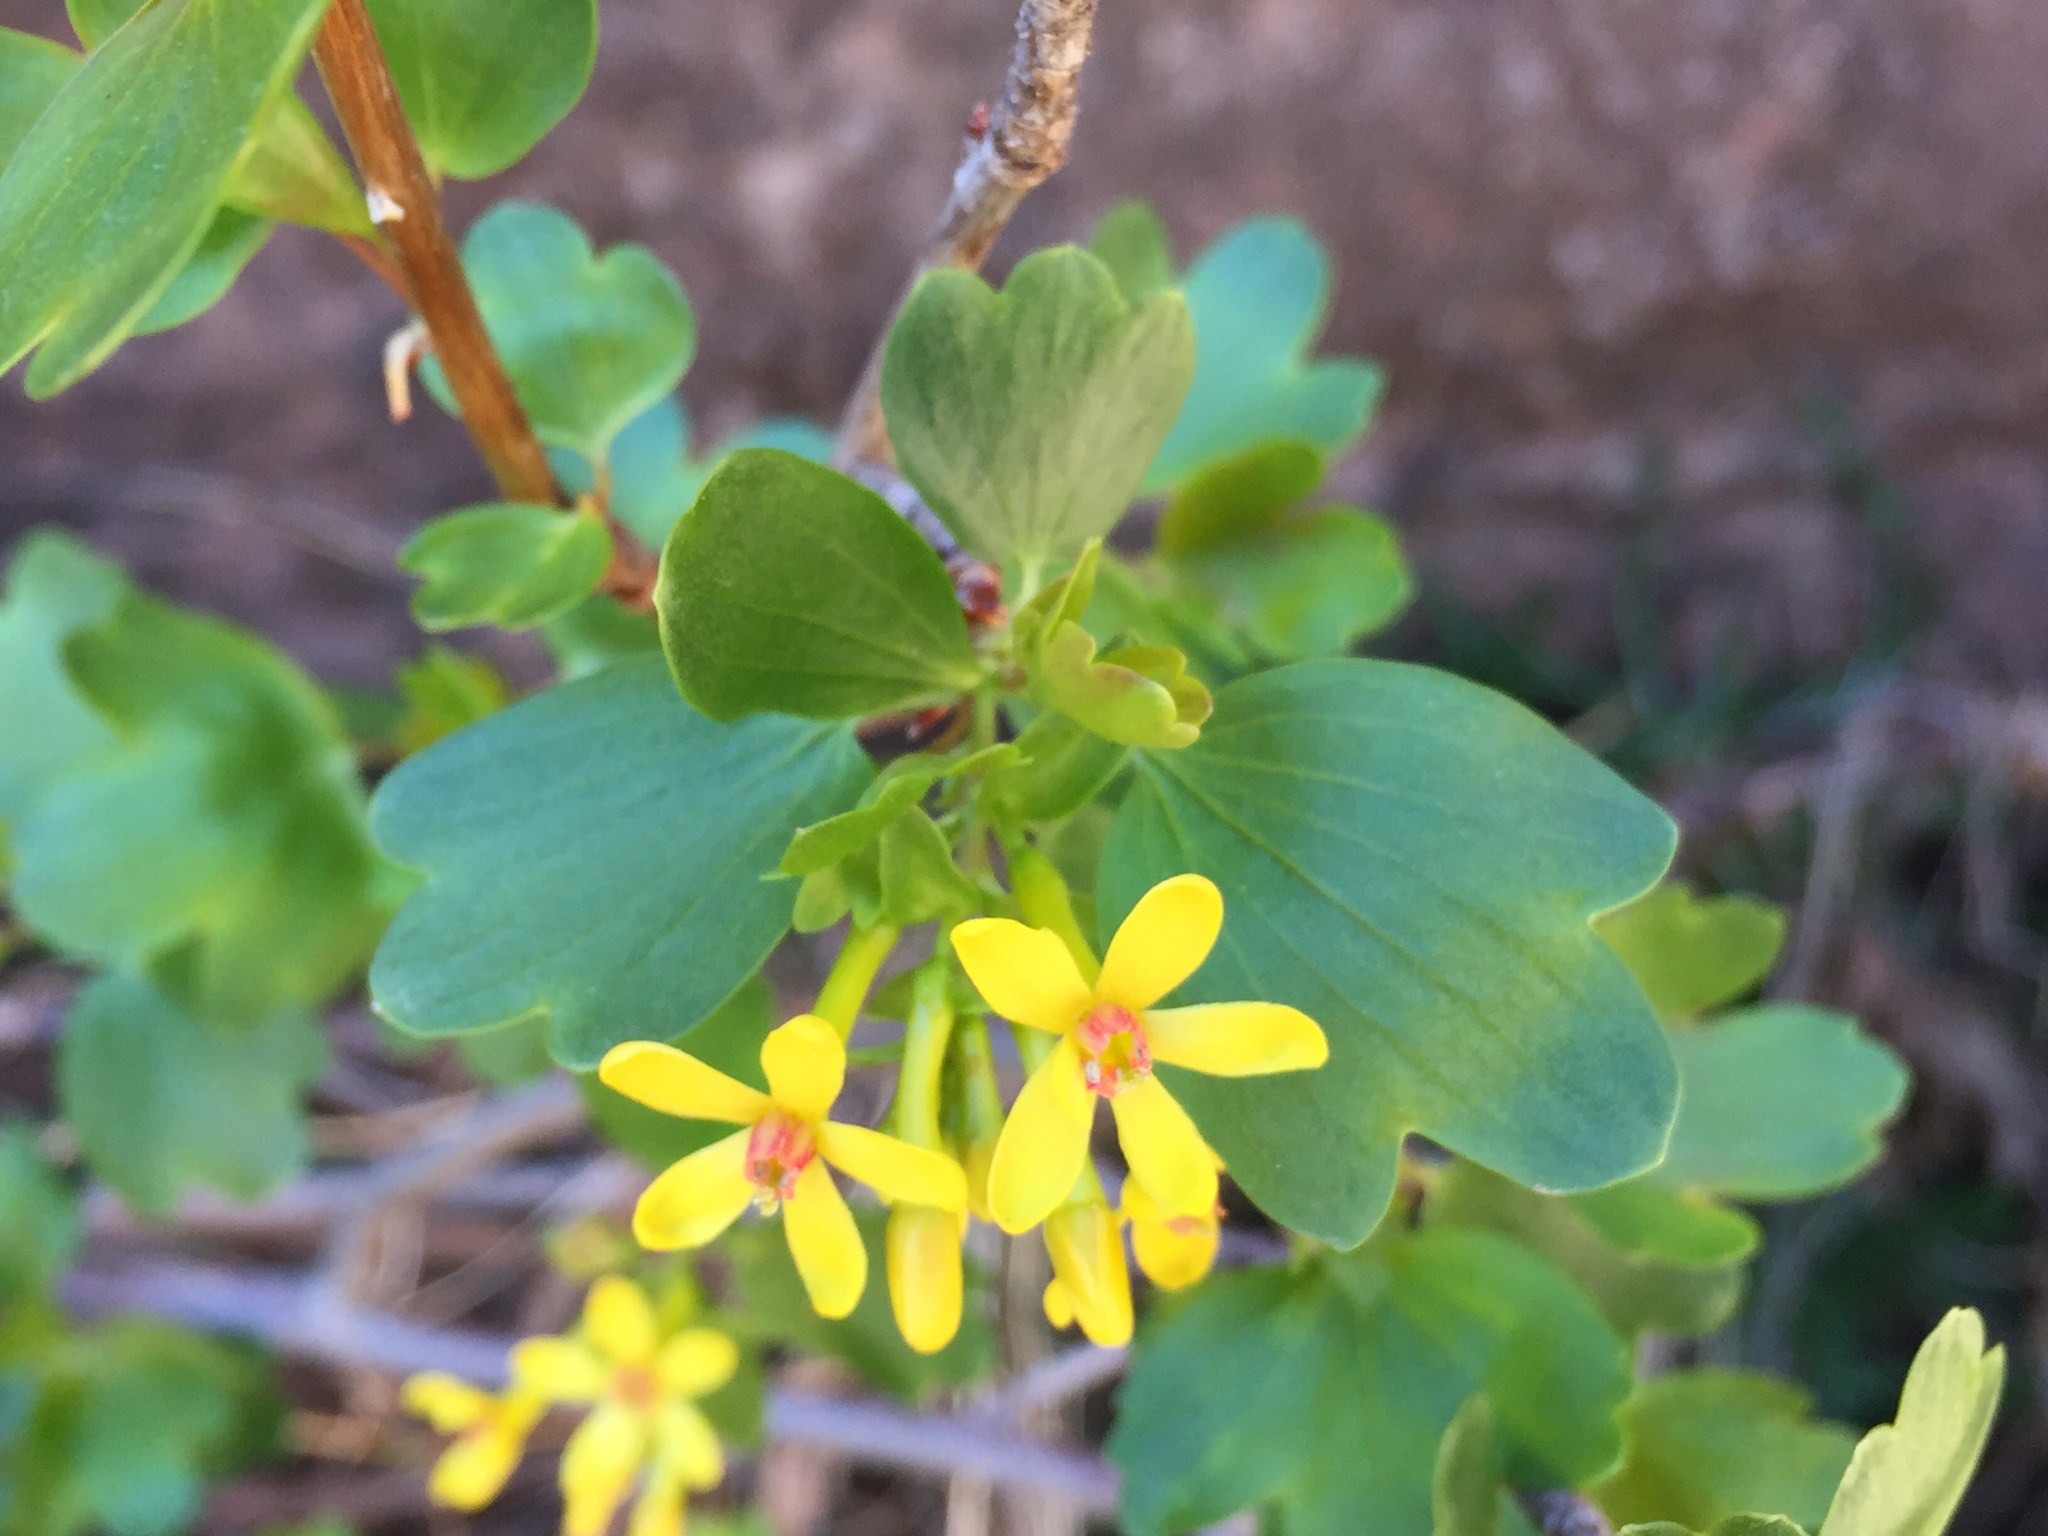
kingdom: Plantae
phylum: Tracheophyta
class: Magnoliopsida
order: Saxifragales
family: Grossulariaceae
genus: Ribes
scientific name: Ribes aureum
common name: Golden currant
